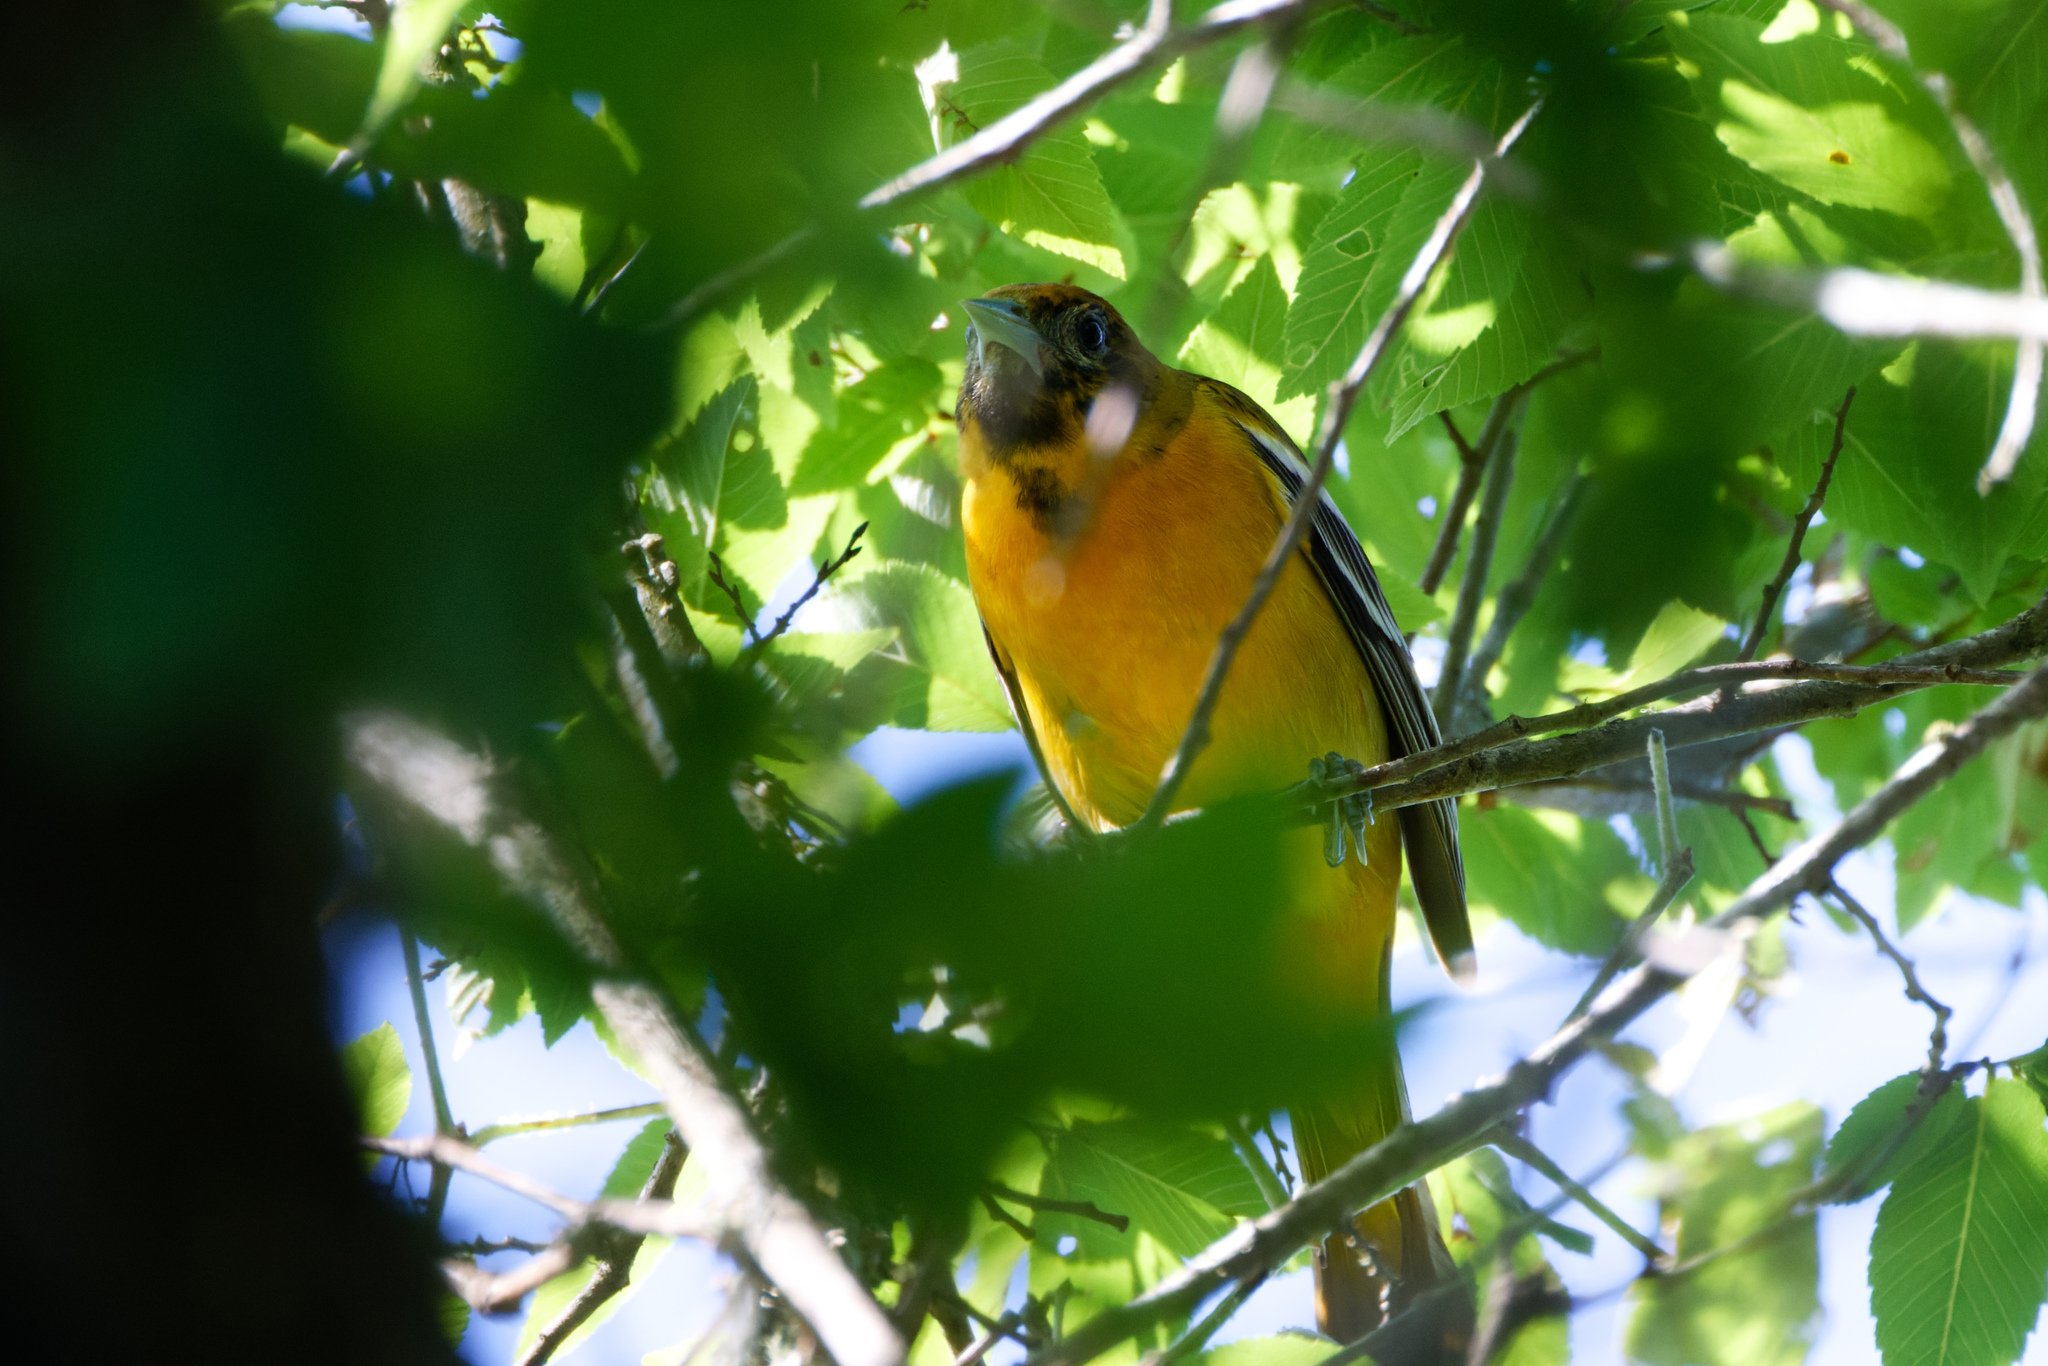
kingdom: Animalia
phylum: Chordata
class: Aves
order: Passeriformes
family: Icteridae
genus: Icterus
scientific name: Icterus galbula
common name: Baltimore oriole
